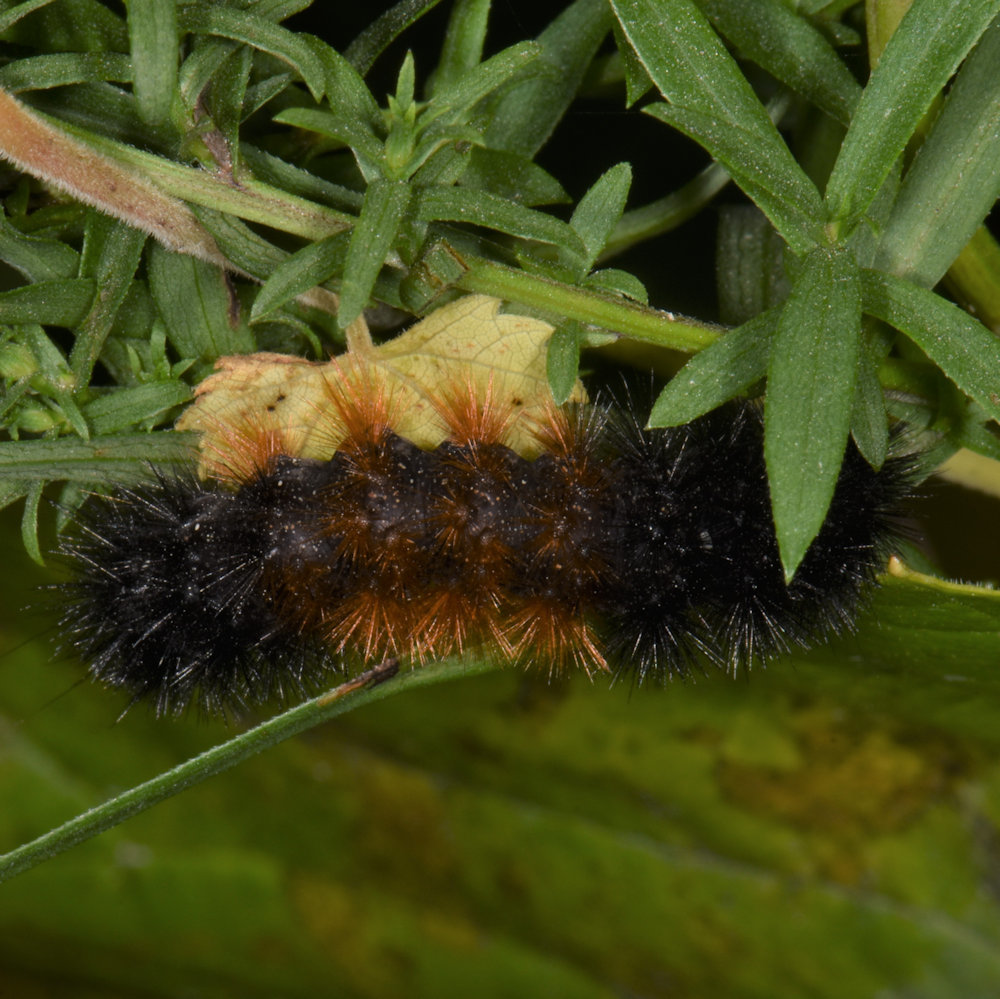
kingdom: Animalia
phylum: Arthropoda
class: Insecta
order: Lepidoptera
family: Erebidae
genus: Pyrrharctia
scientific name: Pyrrharctia isabella
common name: Isabella tiger moth
